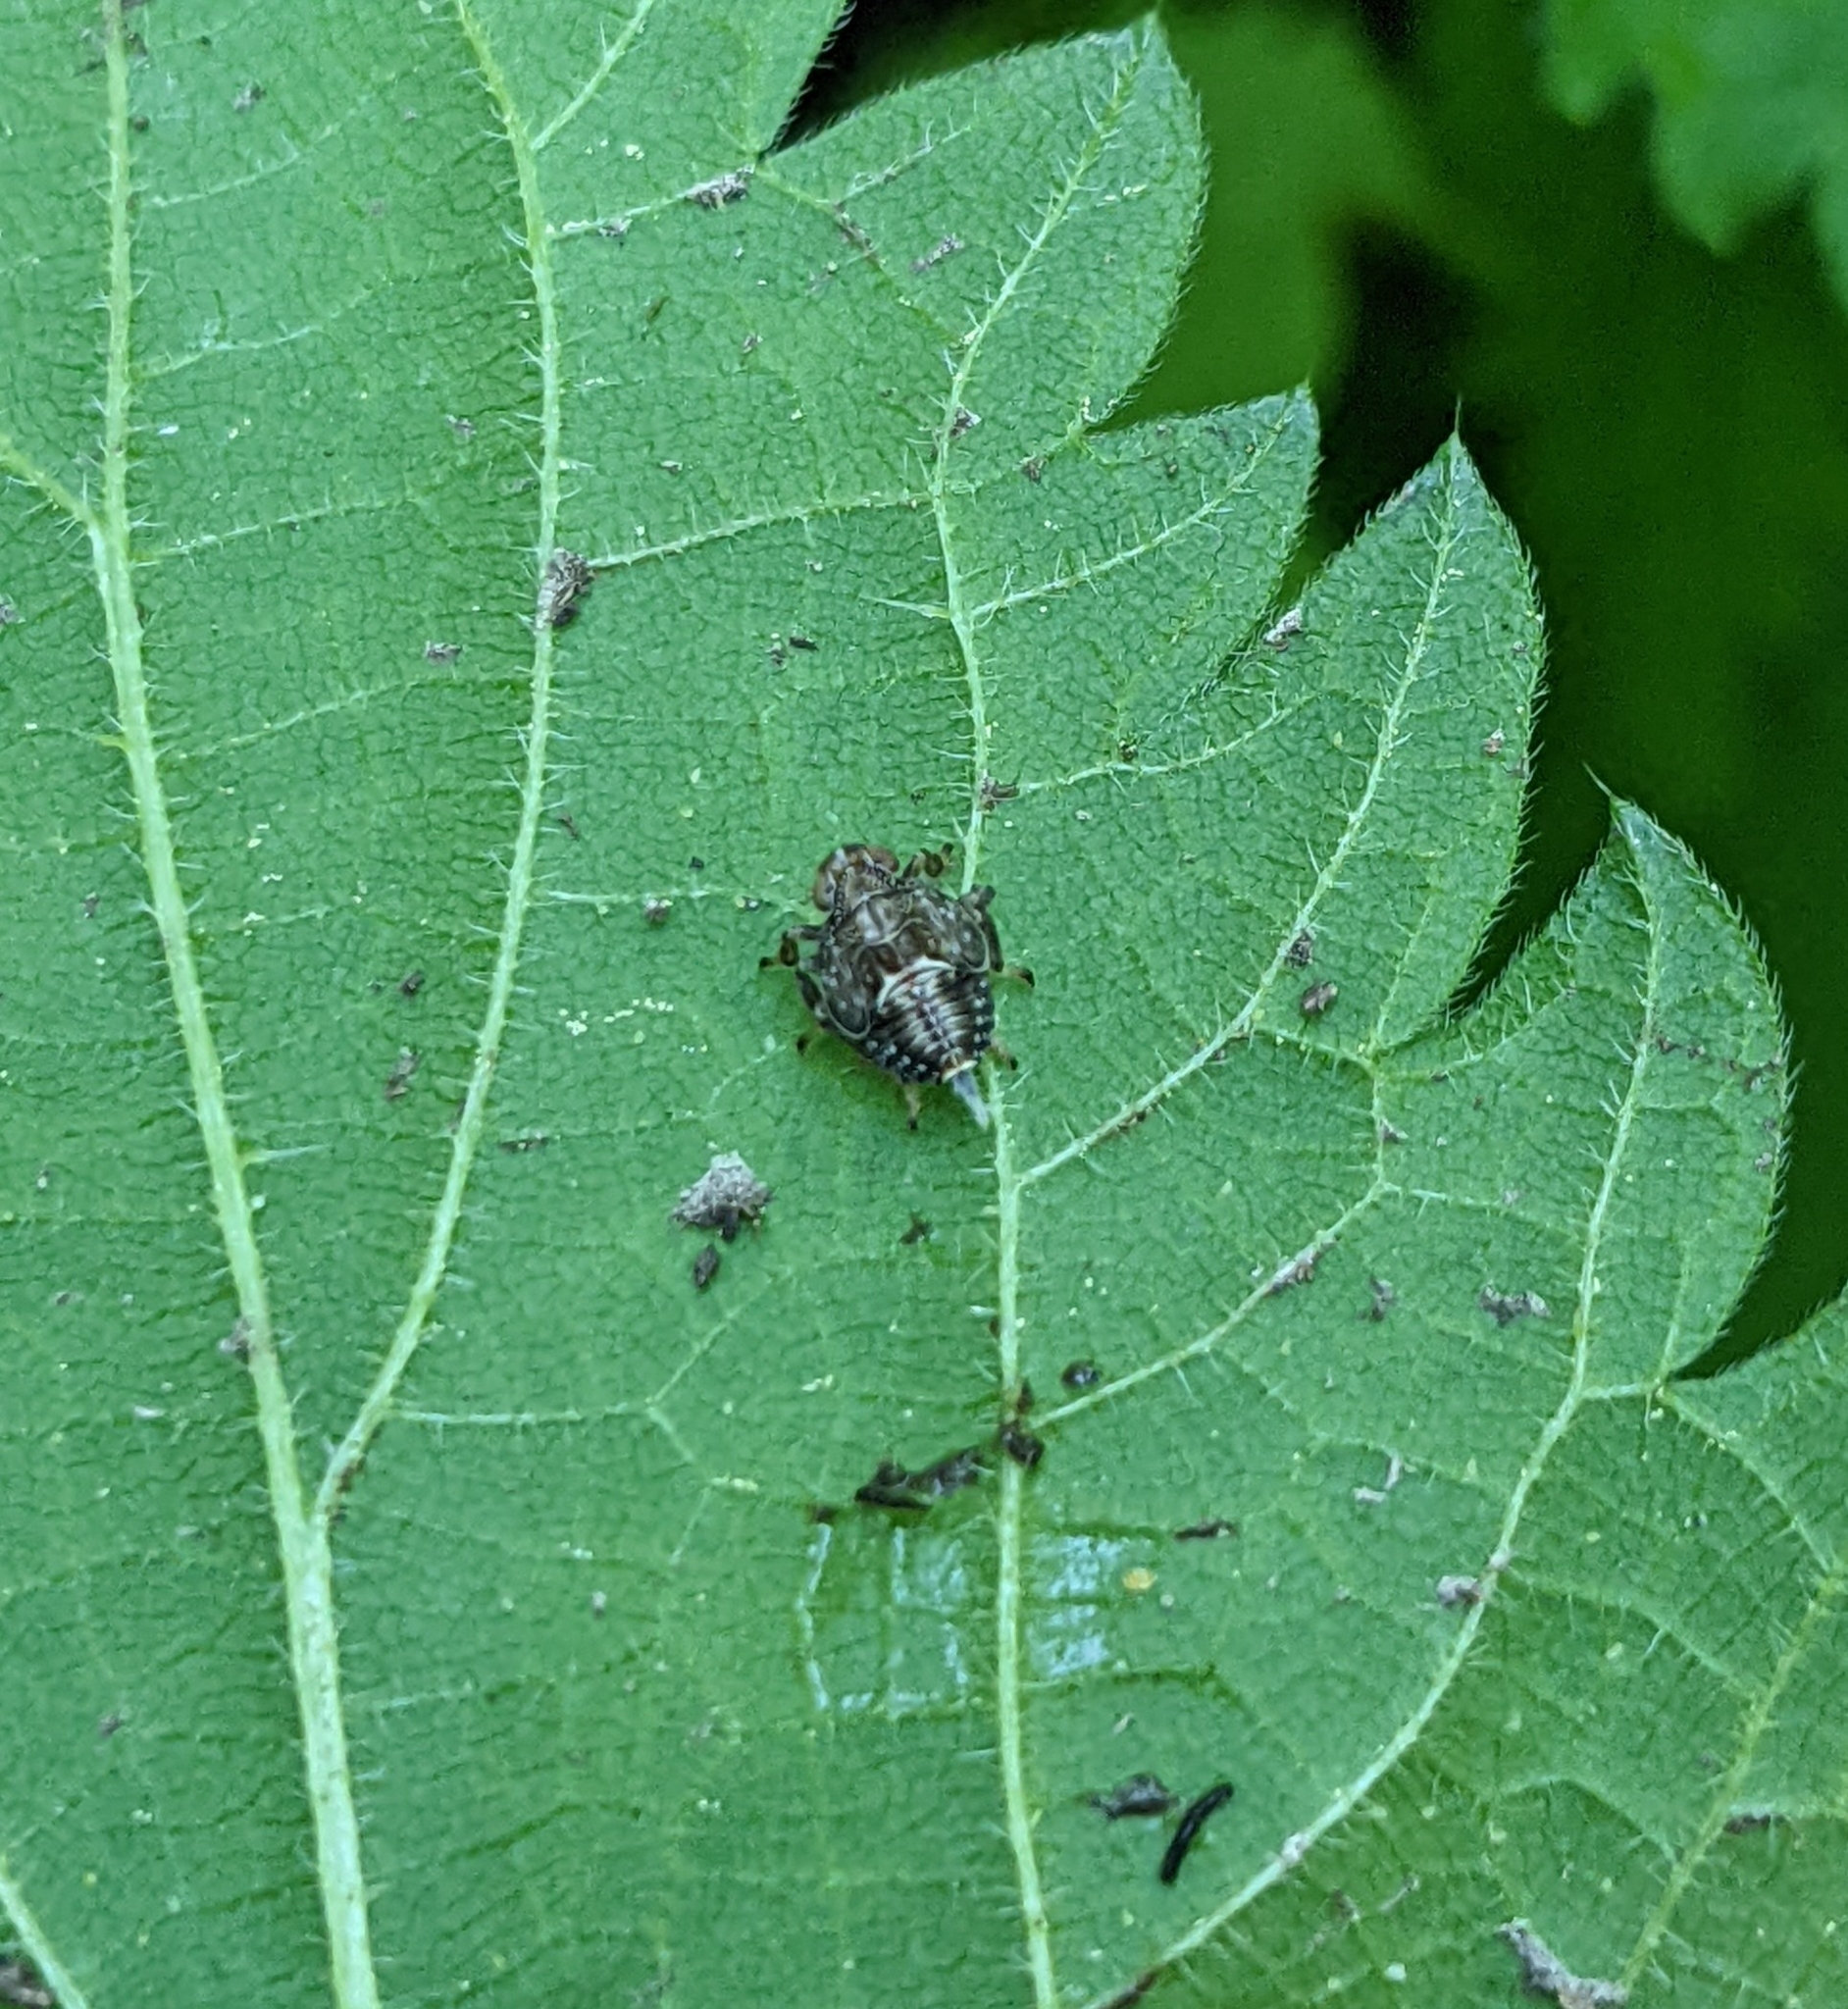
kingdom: Animalia
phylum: Arthropoda
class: Insecta
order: Hemiptera
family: Issidae
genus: Issus
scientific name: Issus coleoptratus
